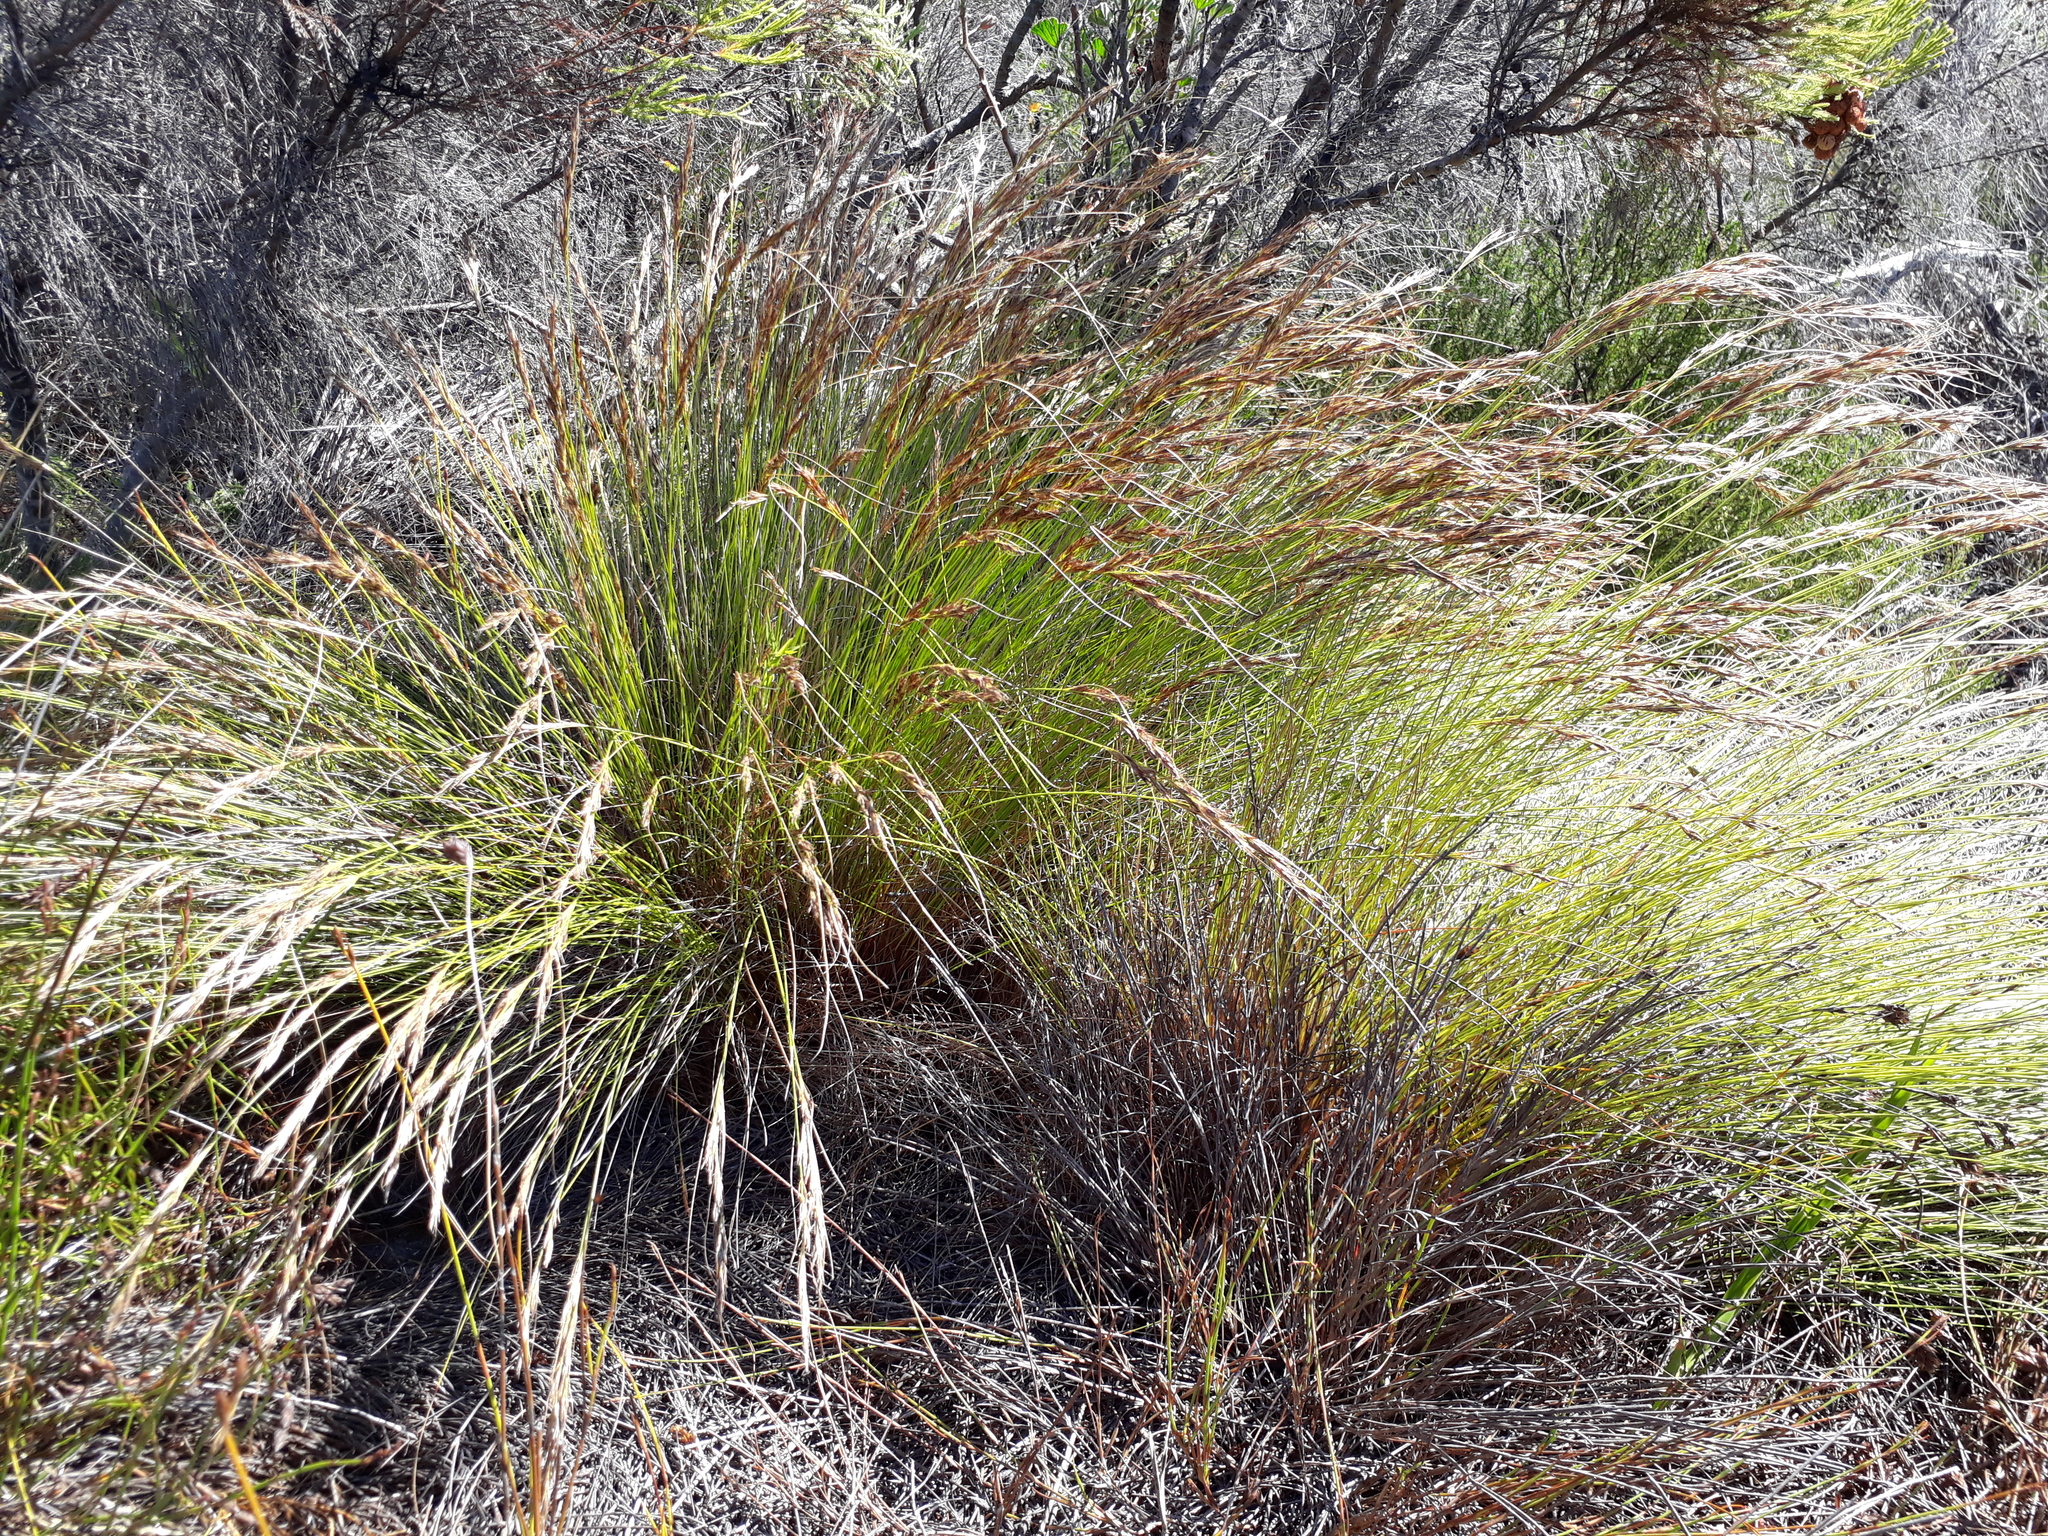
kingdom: Plantae
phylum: Tracheophyta
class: Liliopsida
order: Poales
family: Cyperaceae
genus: Schoenus
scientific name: Schoenus ligulatus
